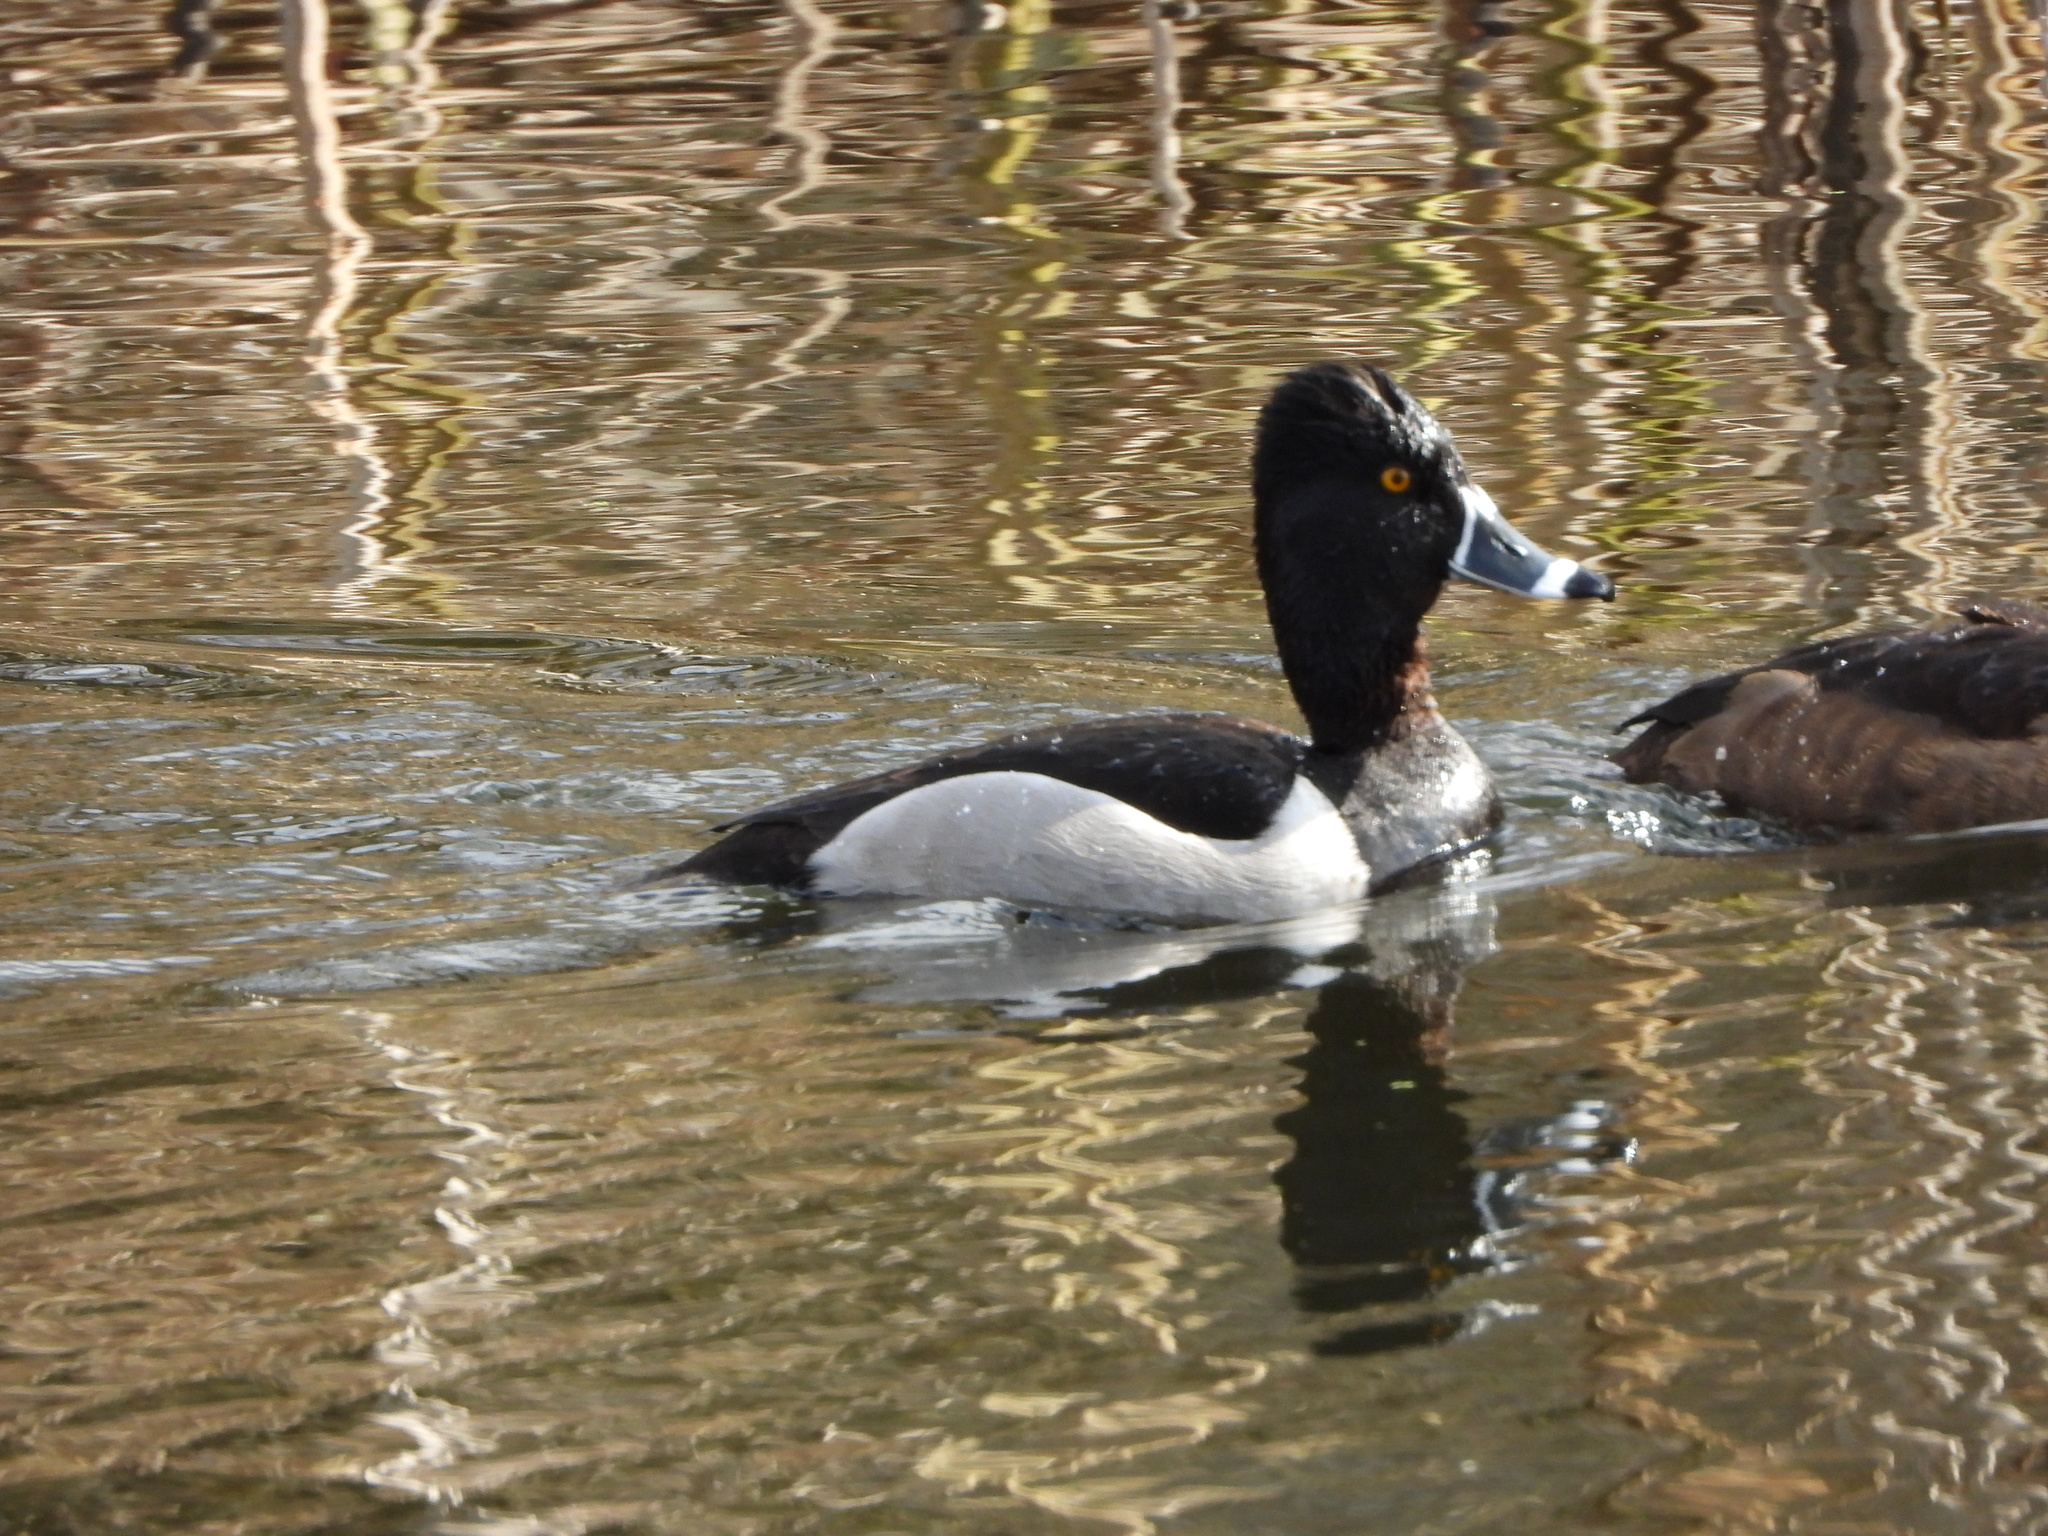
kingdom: Animalia
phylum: Chordata
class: Aves
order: Anseriformes
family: Anatidae
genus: Aythya
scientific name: Aythya collaris
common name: Ring-necked duck
